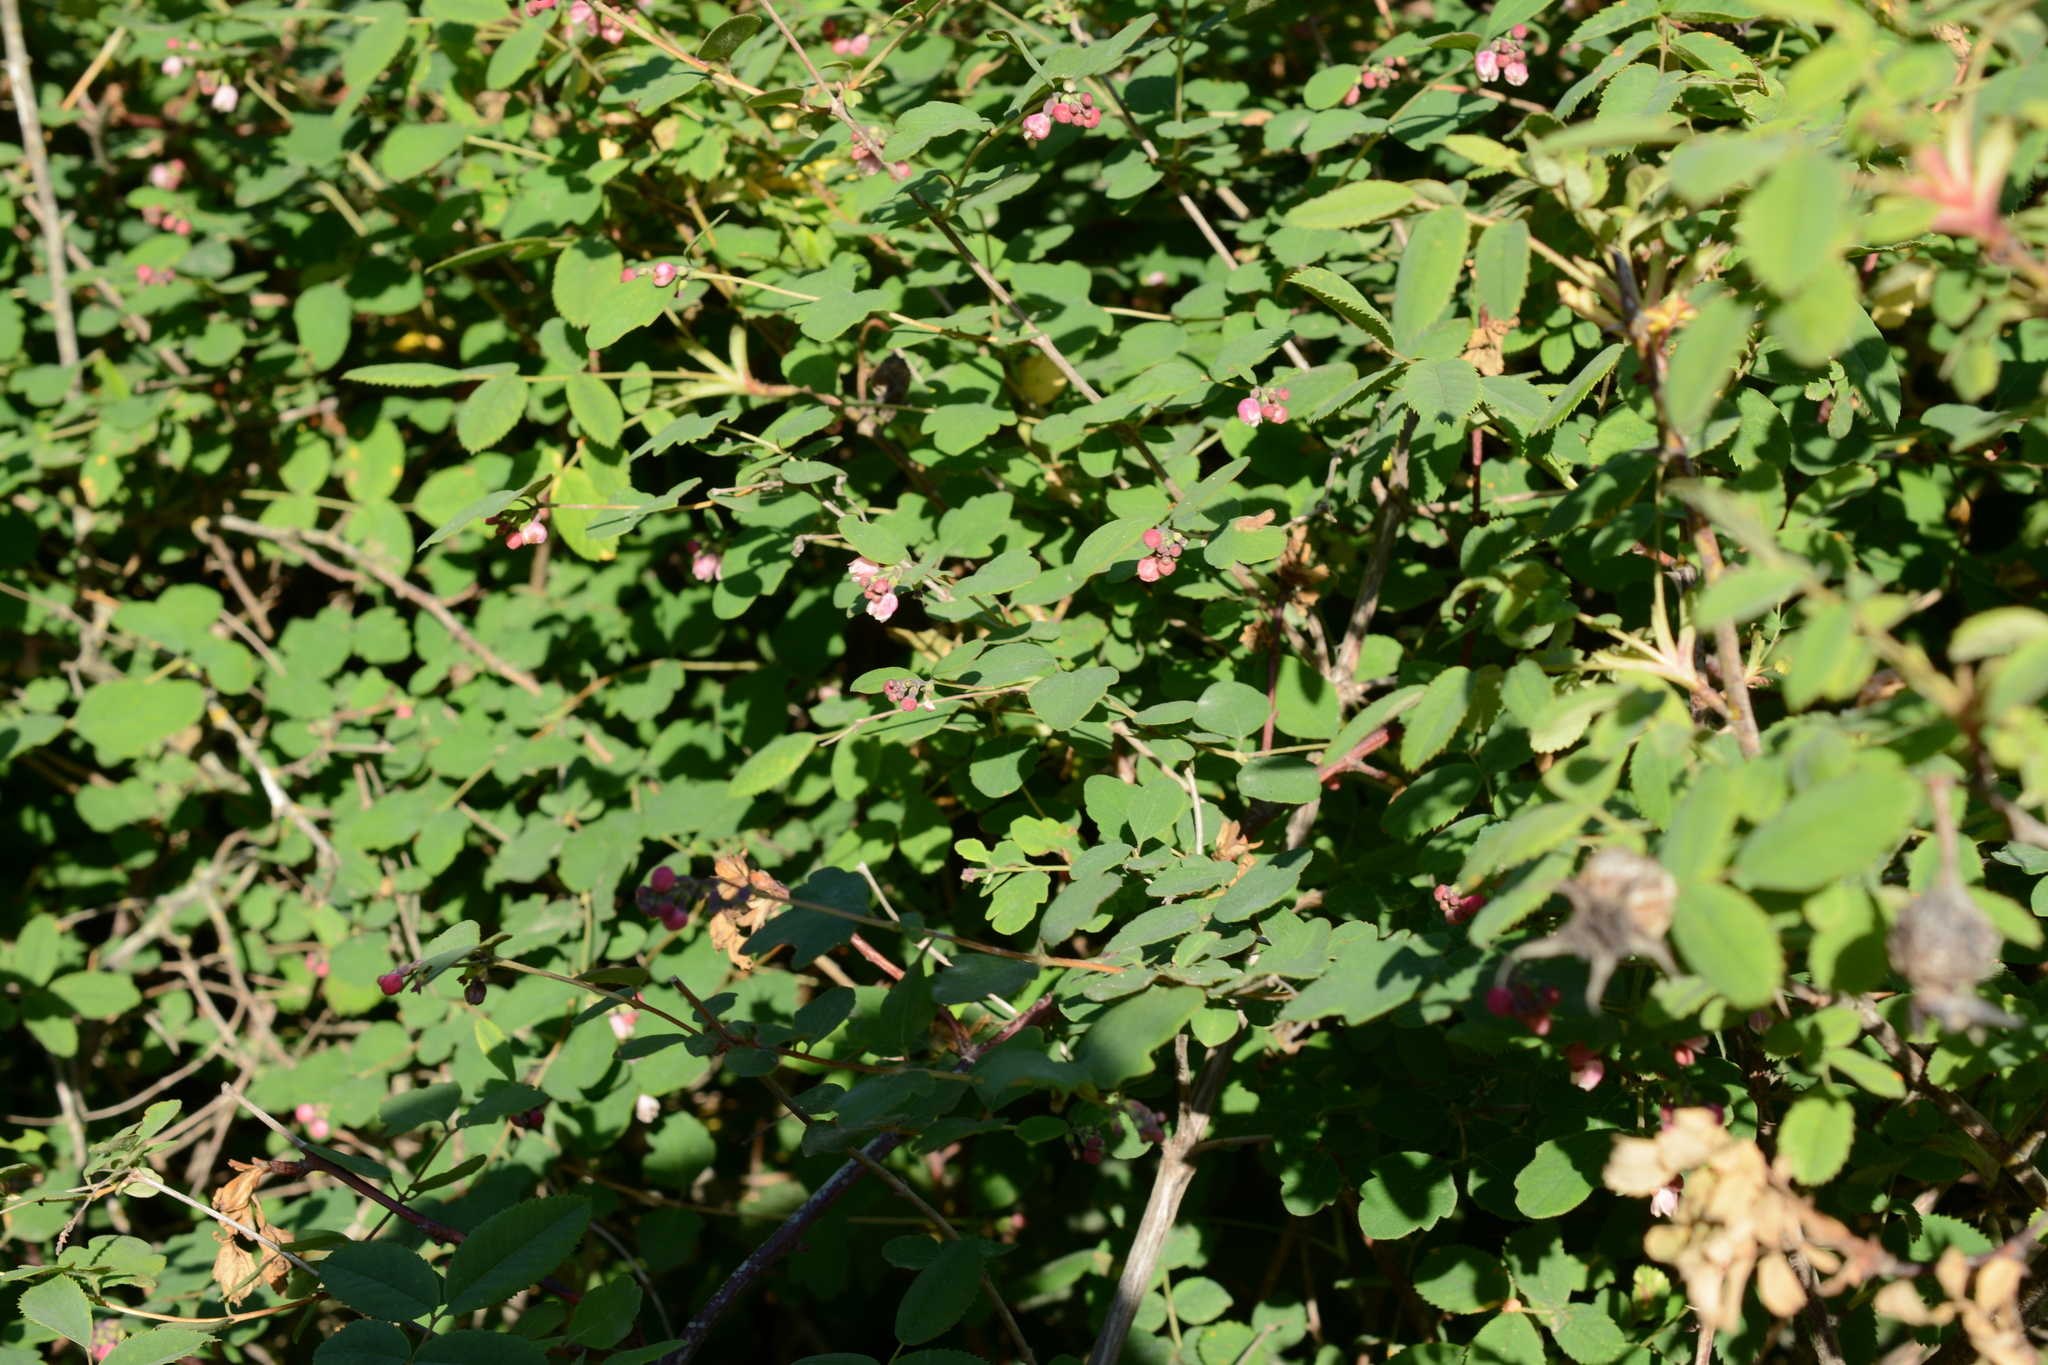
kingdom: Plantae
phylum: Tracheophyta
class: Magnoliopsida
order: Dipsacales
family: Caprifoliaceae
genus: Symphoricarpos
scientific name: Symphoricarpos albus
